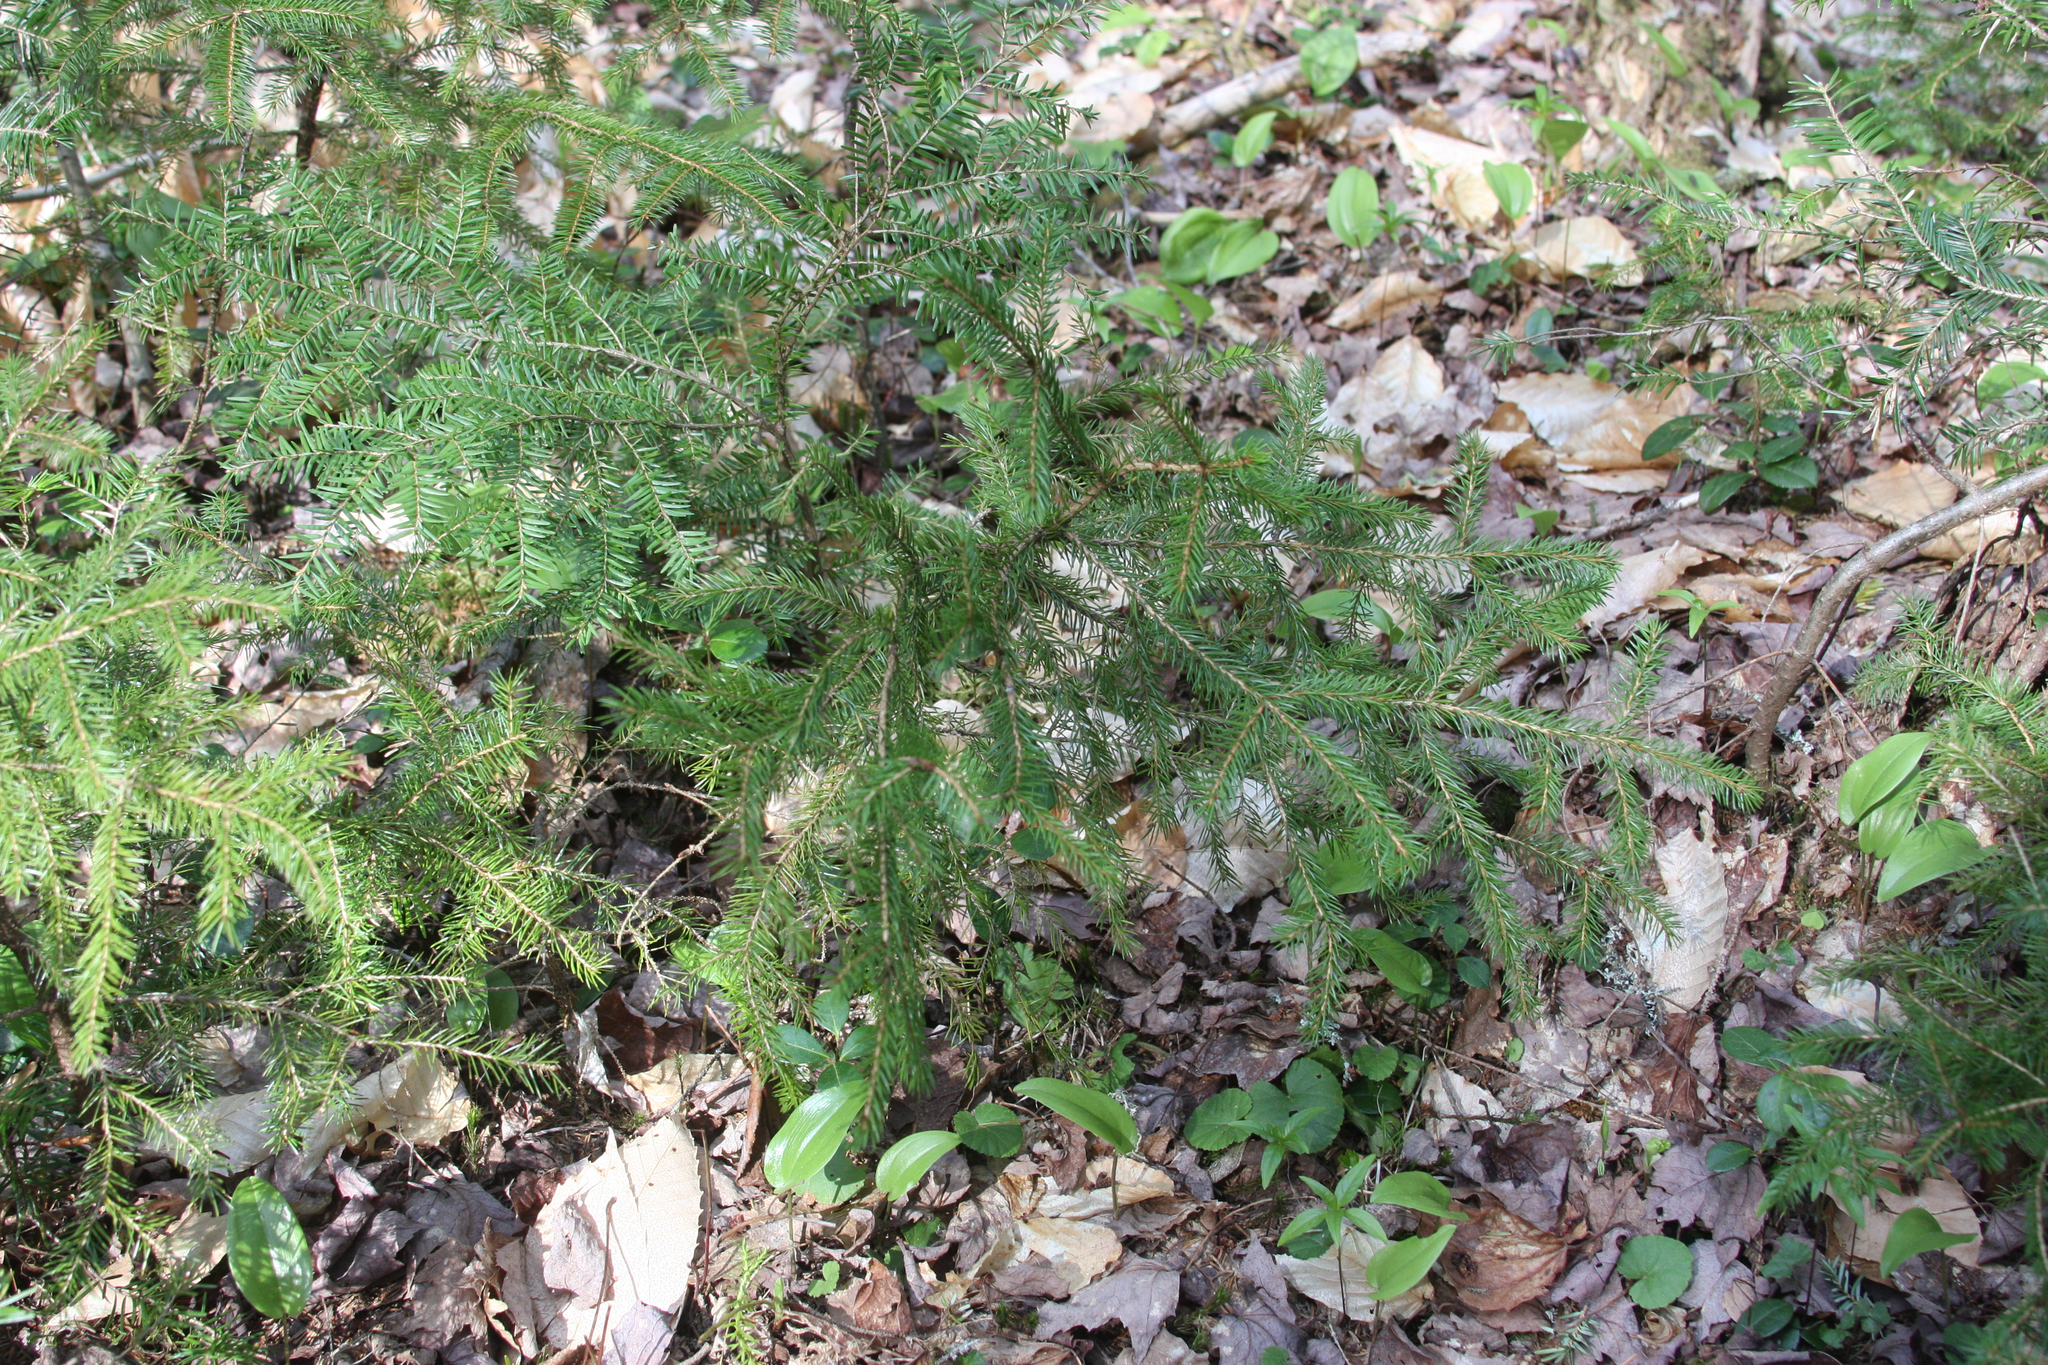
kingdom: Plantae
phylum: Tracheophyta
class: Liliopsida
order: Asparagales
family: Asparagaceae
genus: Maianthemum
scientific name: Maianthemum canadense
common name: False lily-of-the-valley
